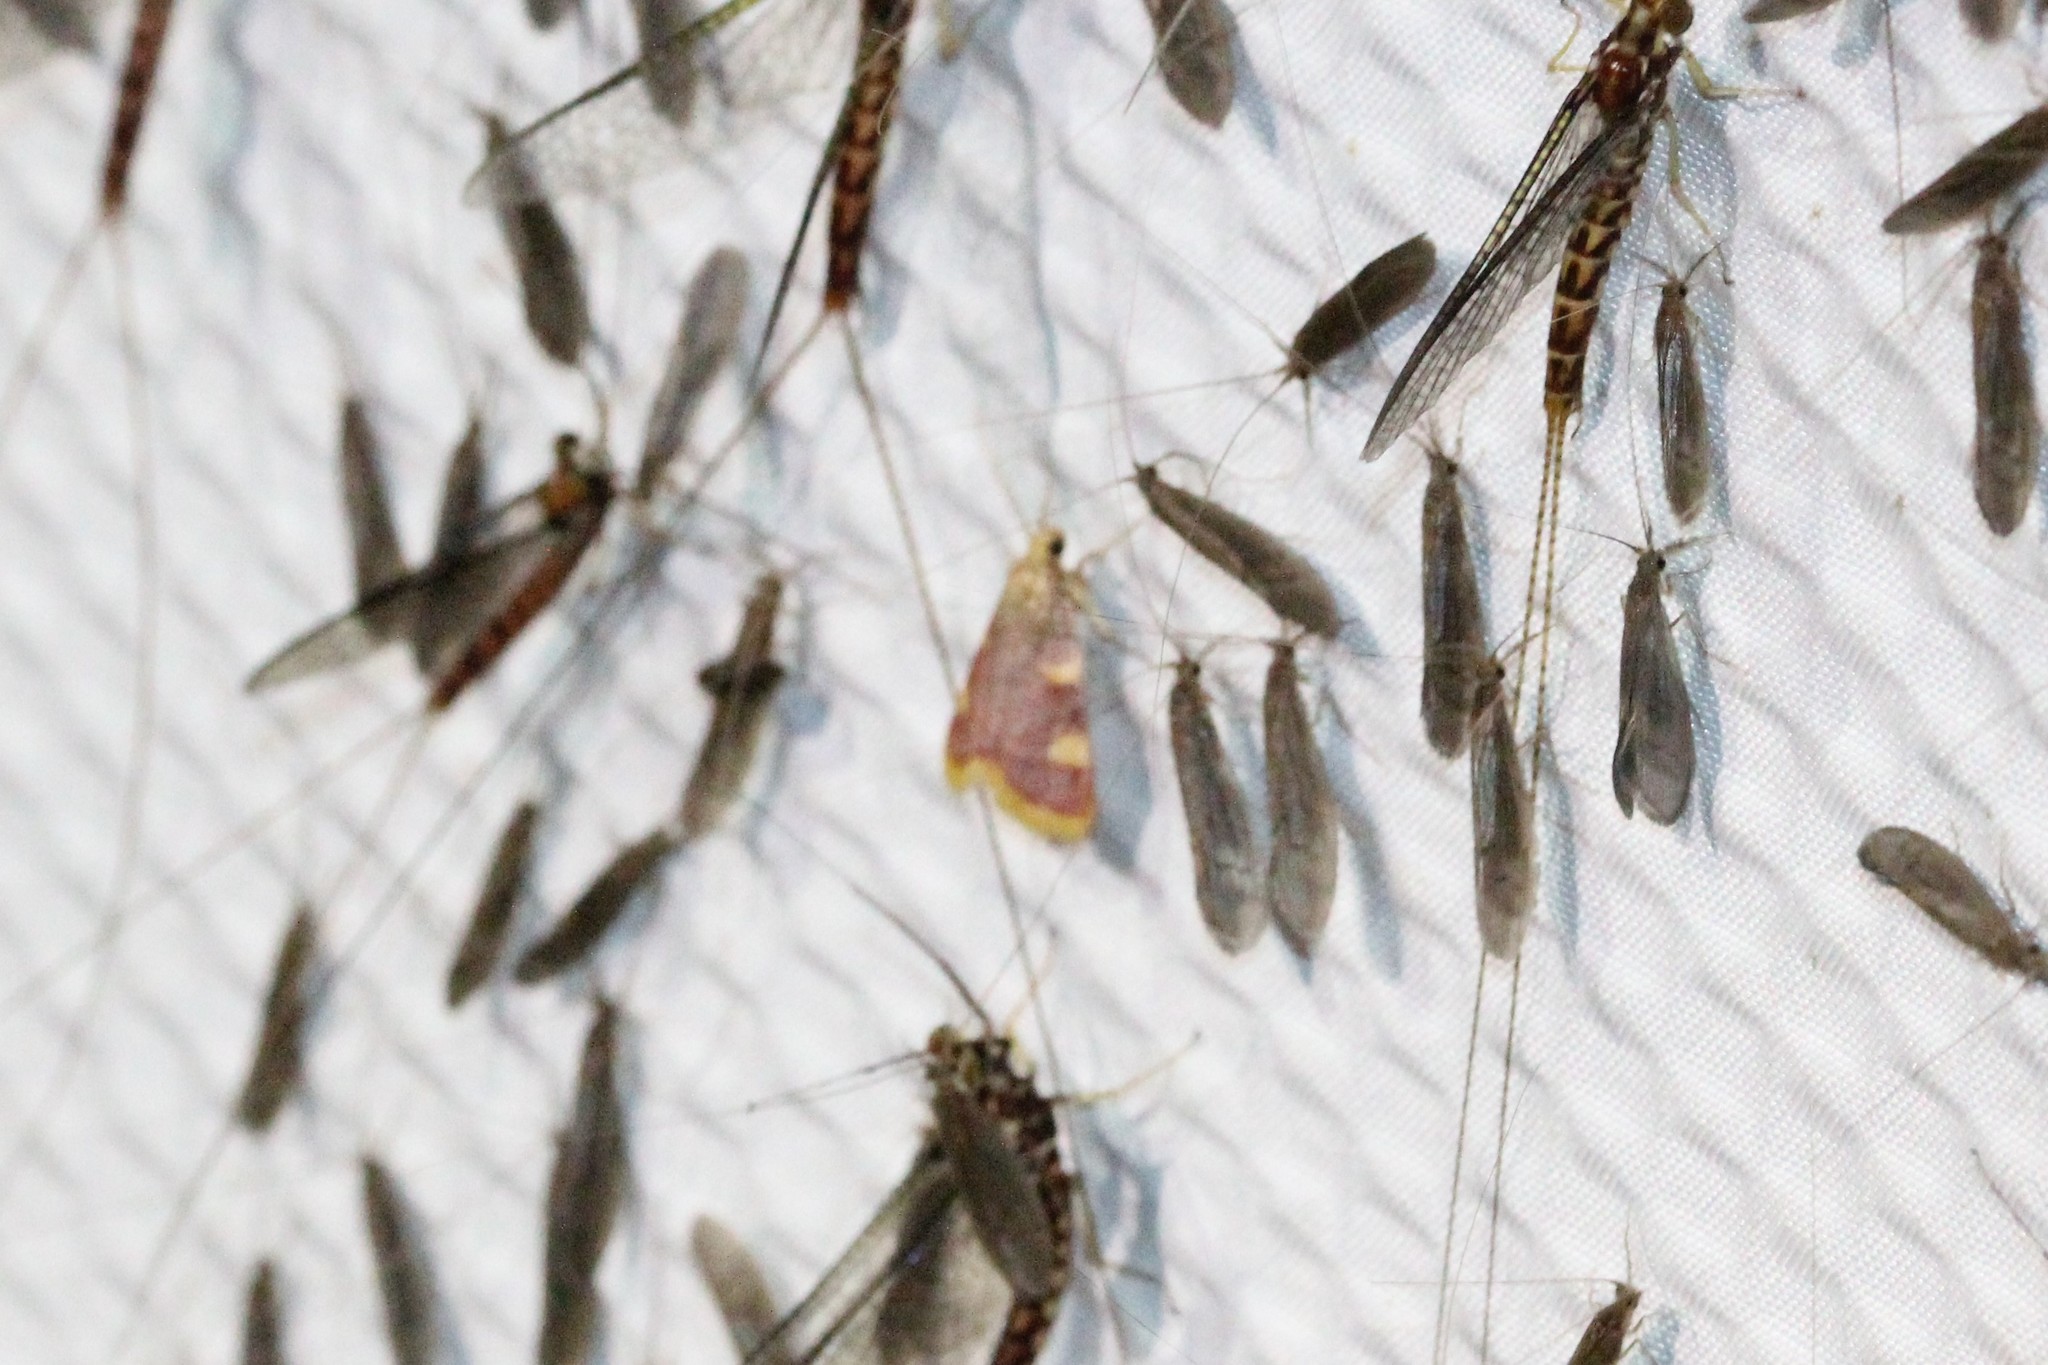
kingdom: Animalia
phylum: Arthropoda
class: Insecta
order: Lepidoptera
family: Pyralidae
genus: Hypsopygia
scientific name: Hypsopygia costalis
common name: Gold triangle
